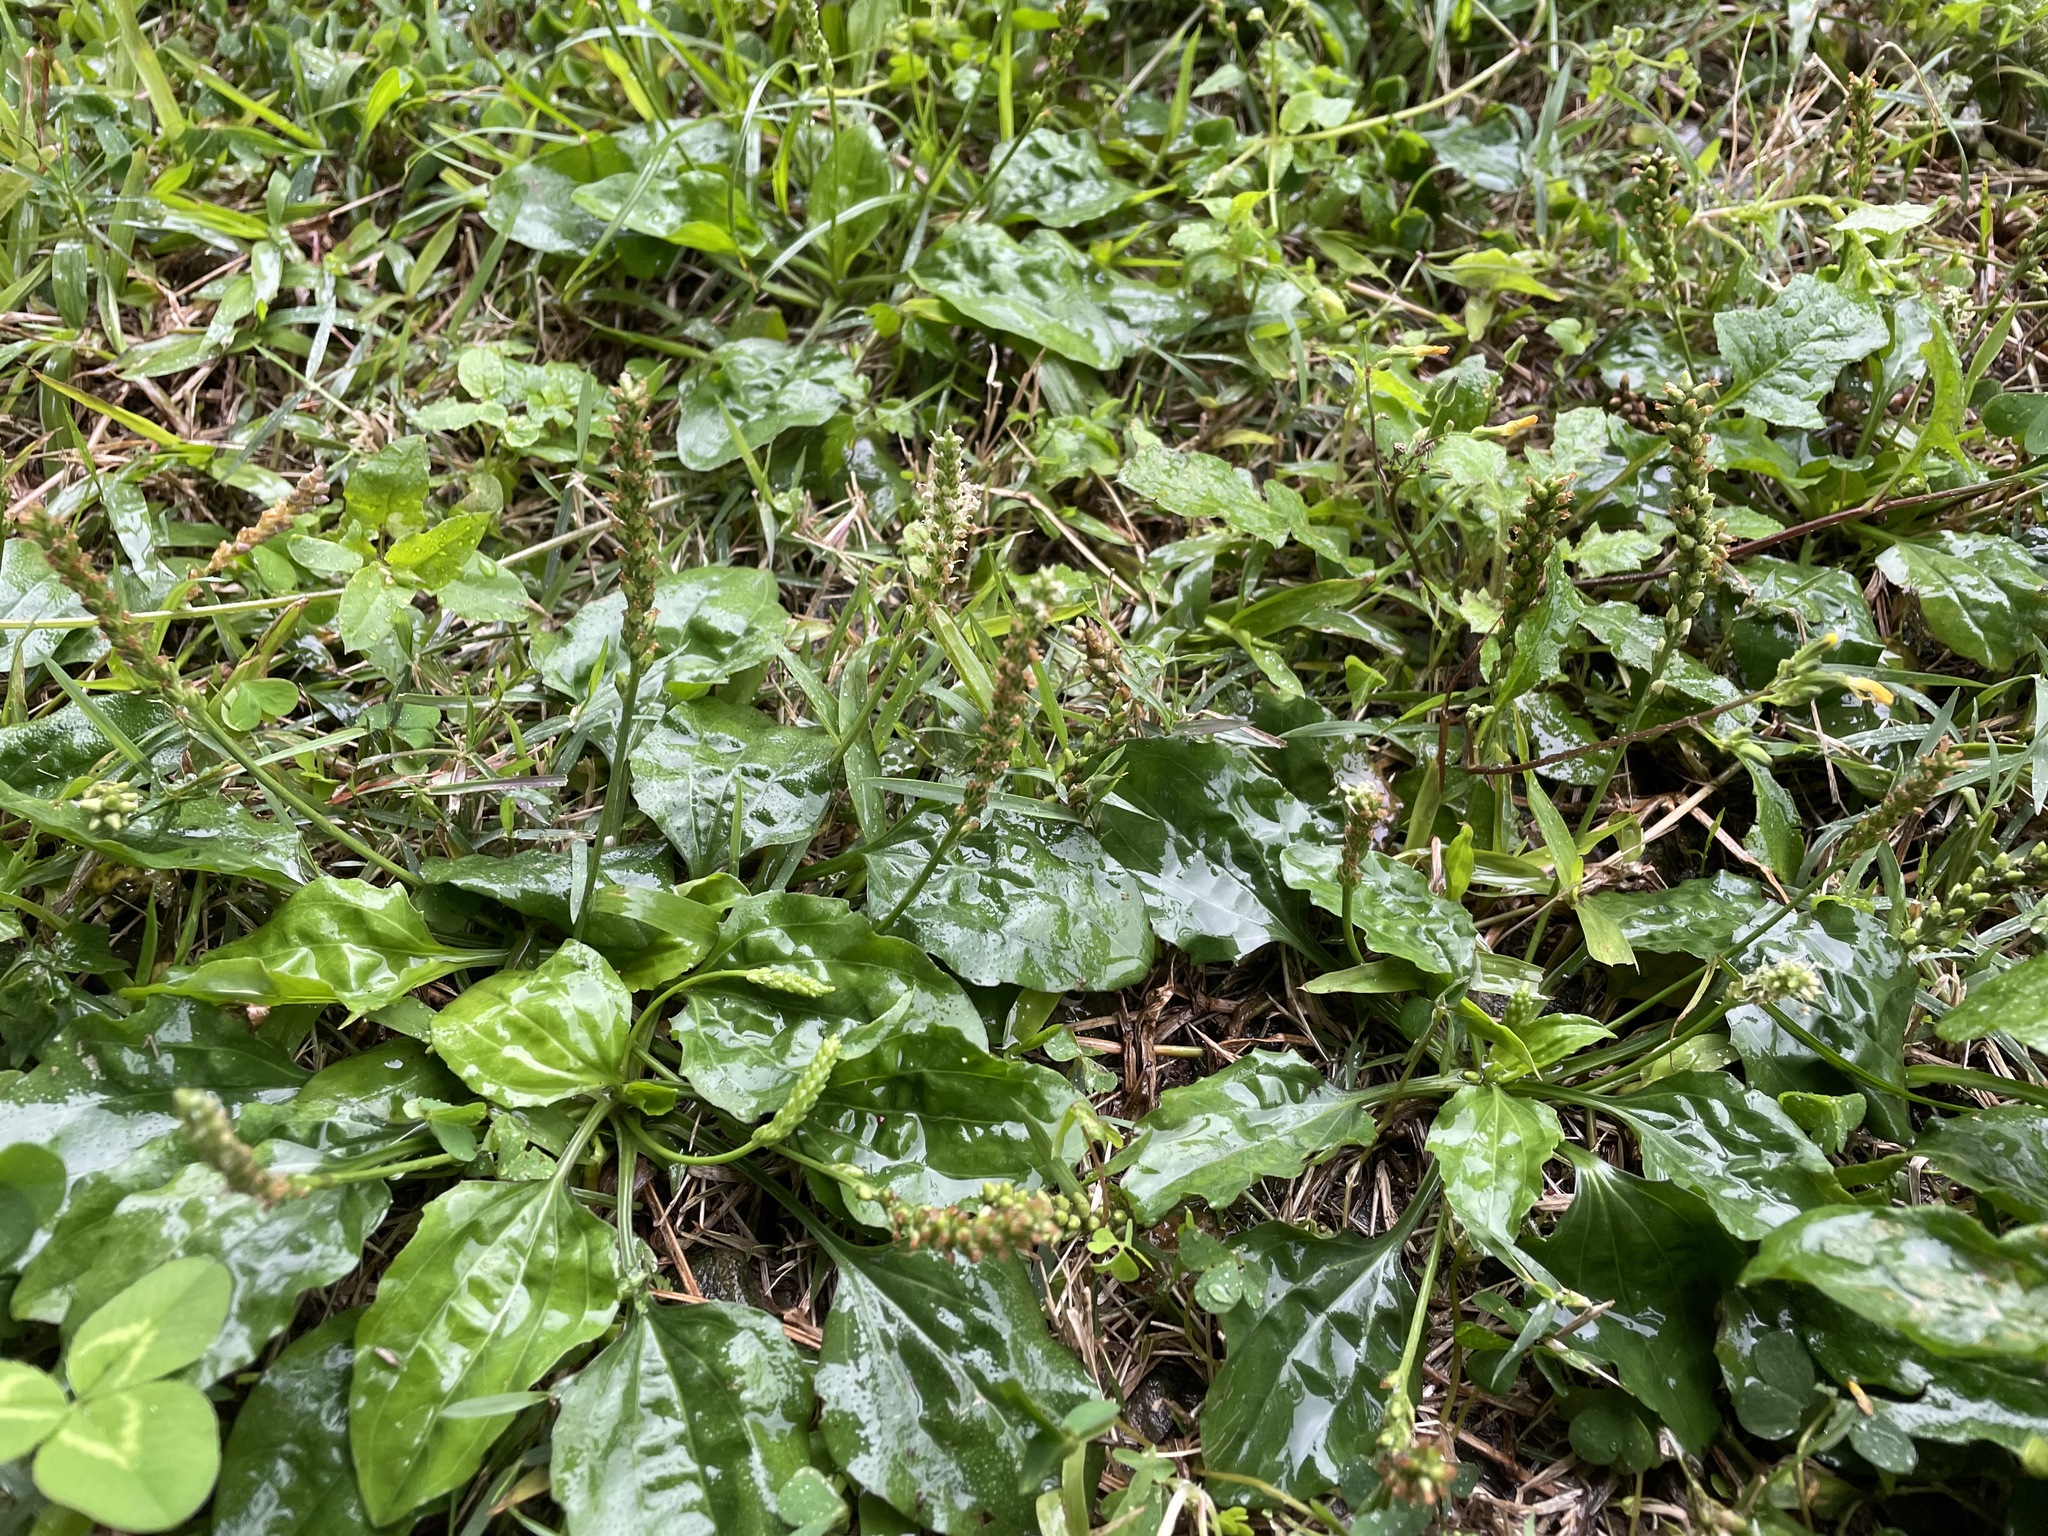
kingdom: Plantae
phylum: Tracheophyta
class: Magnoliopsida
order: Lamiales
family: Plantaginaceae
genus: Plantago
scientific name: Plantago asiatica
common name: Psyllium
